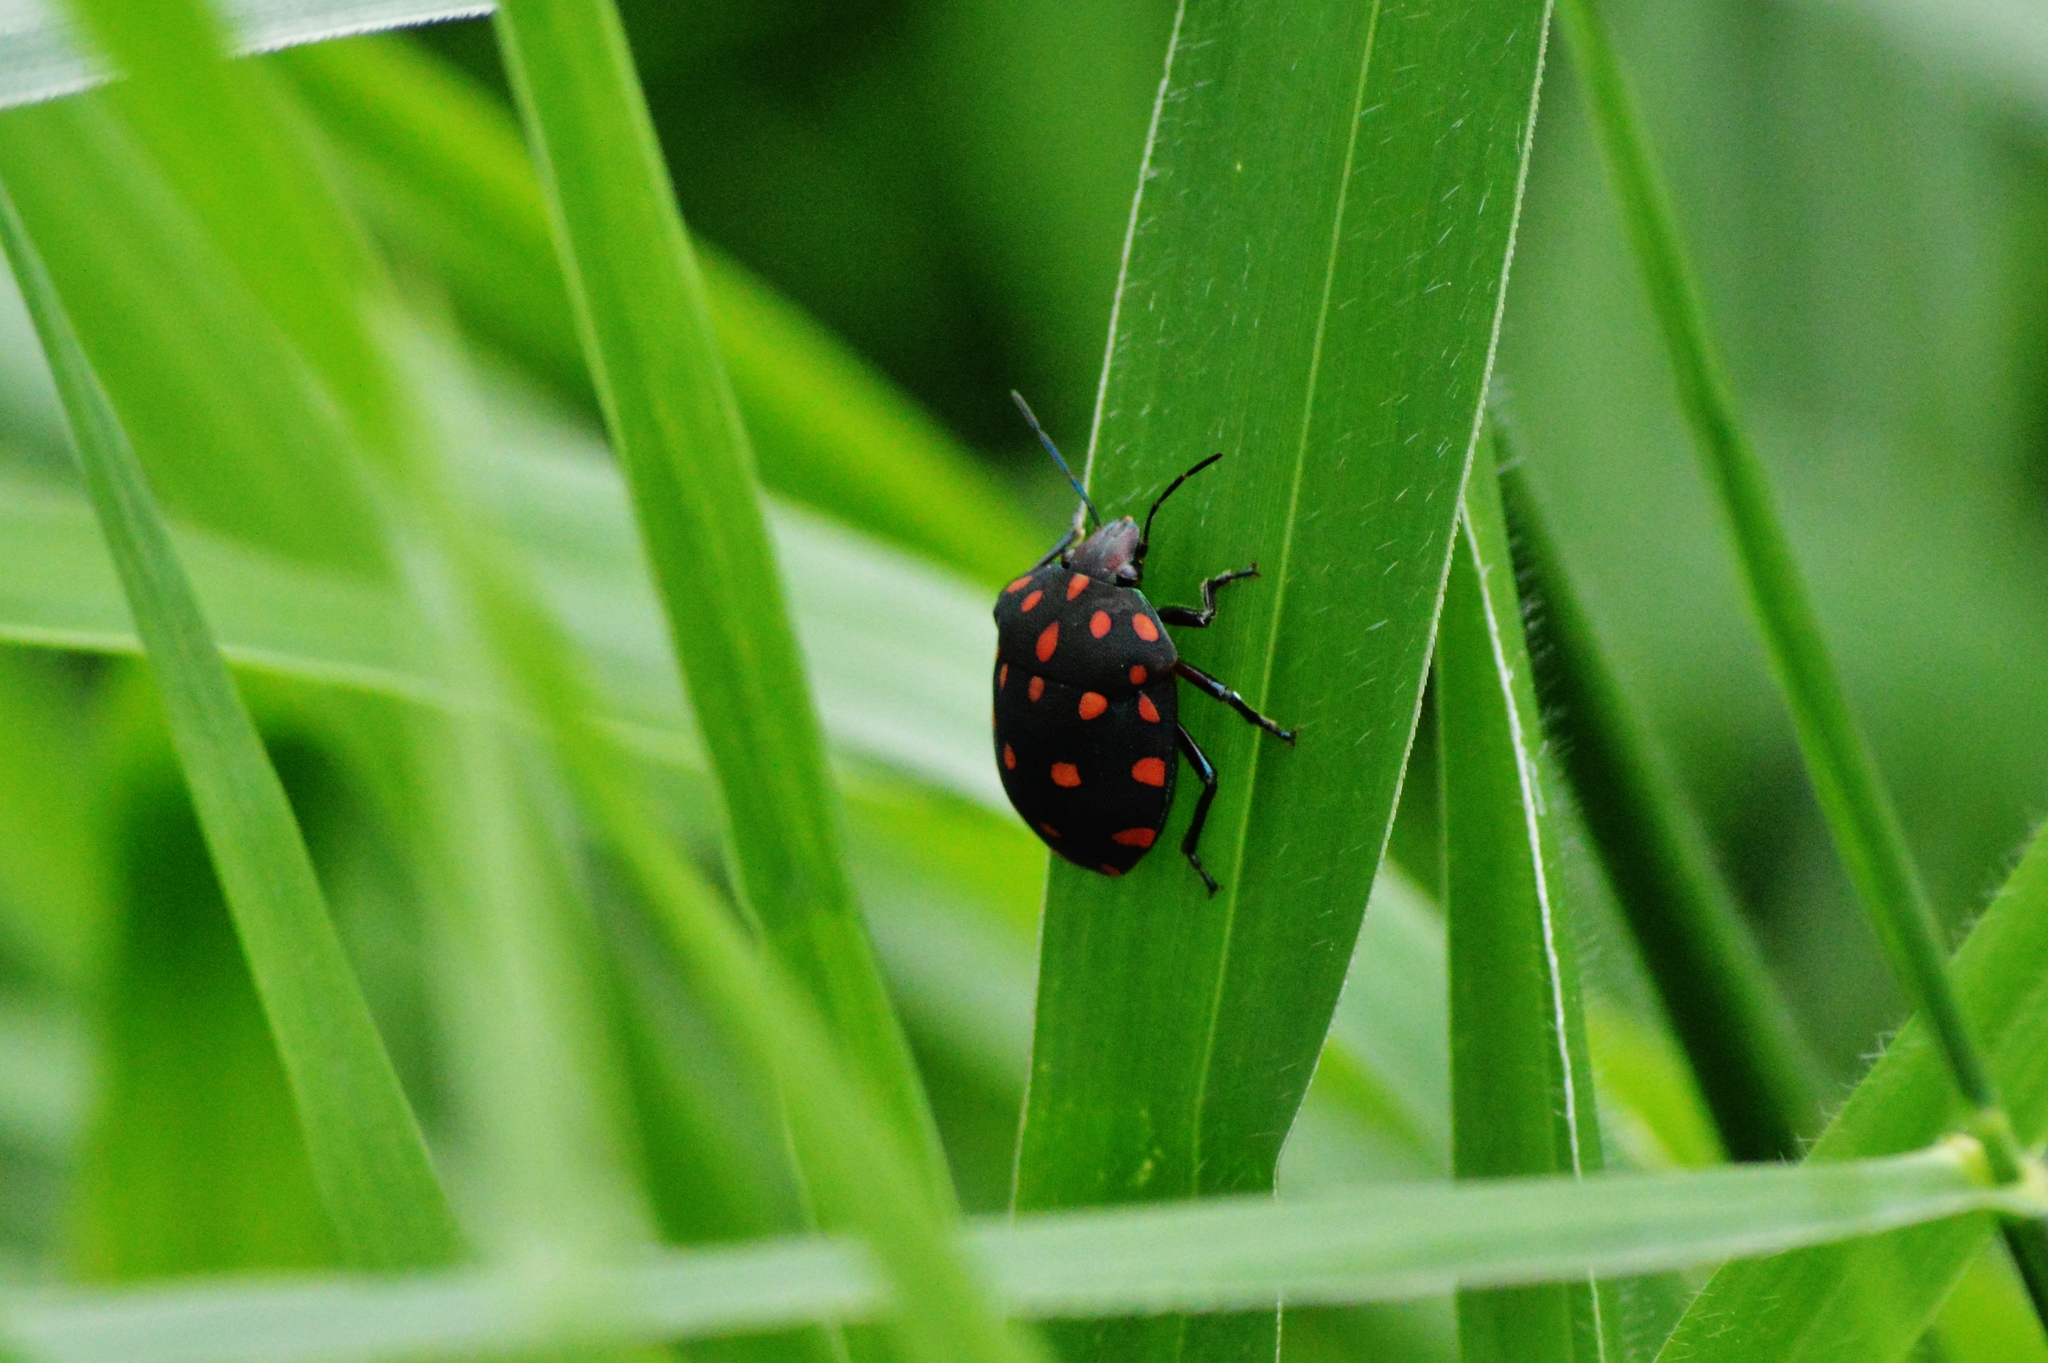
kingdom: Animalia
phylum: Arthropoda
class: Insecta
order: Hemiptera
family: Scutelleridae
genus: Pachycoris
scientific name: Pachycoris torridus
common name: Torrid jewel bug
